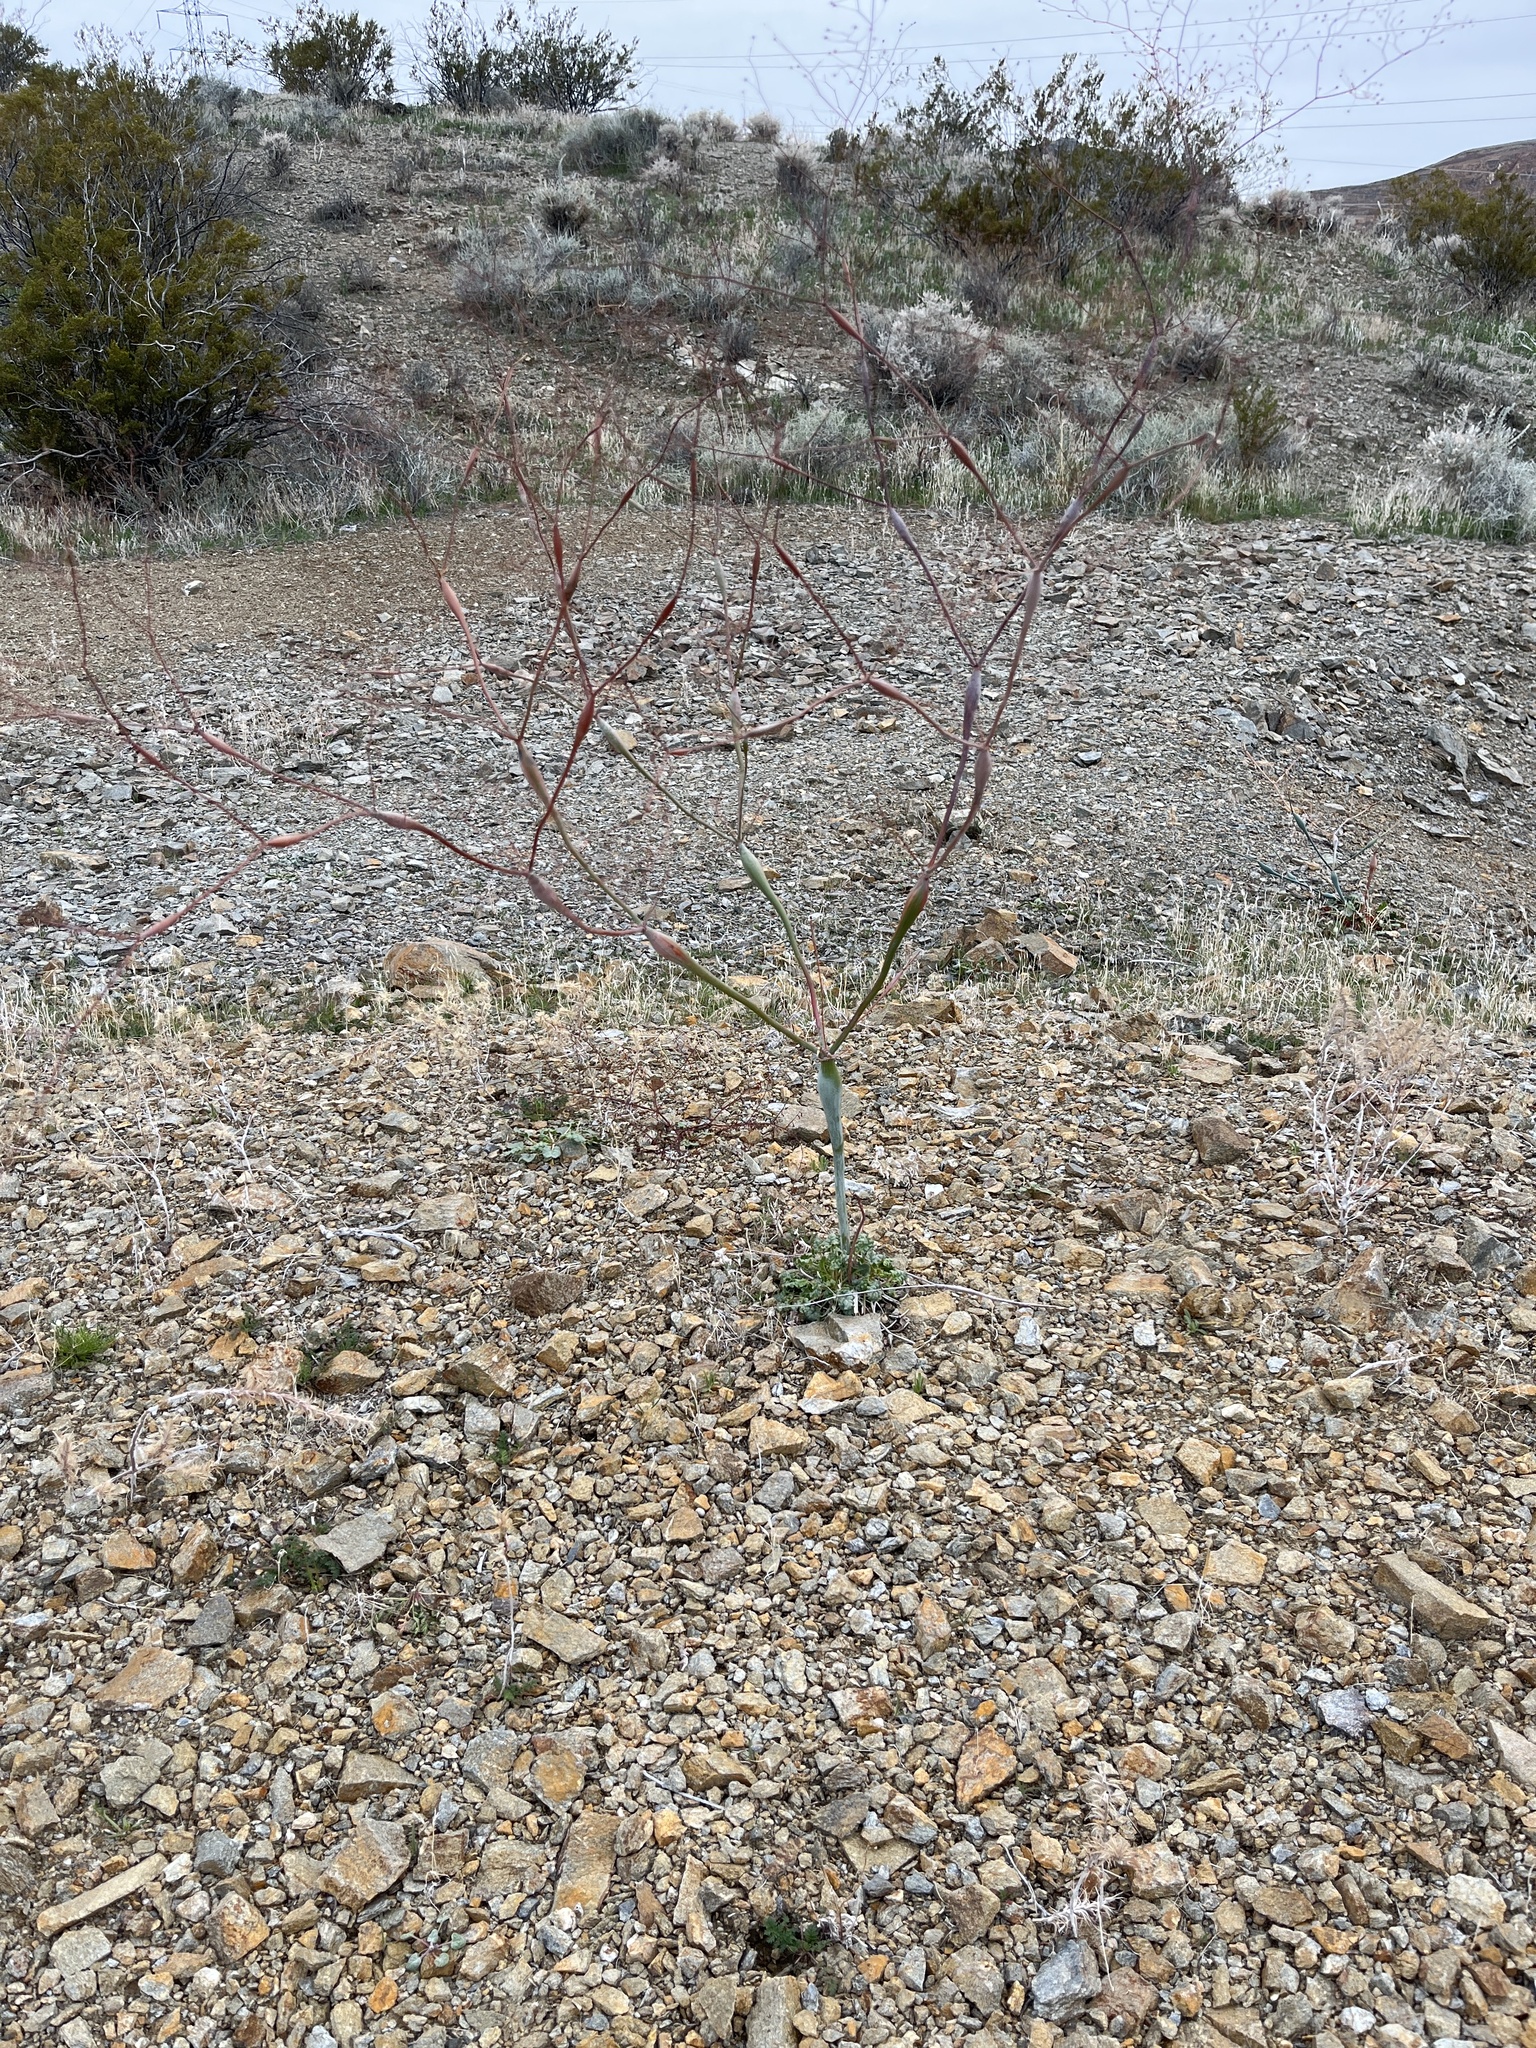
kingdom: Plantae
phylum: Tracheophyta
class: Magnoliopsida
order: Caryophyllales
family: Polygonaceae
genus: Eriogonum
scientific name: Eriogonum inflatum
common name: Desert trumpet
